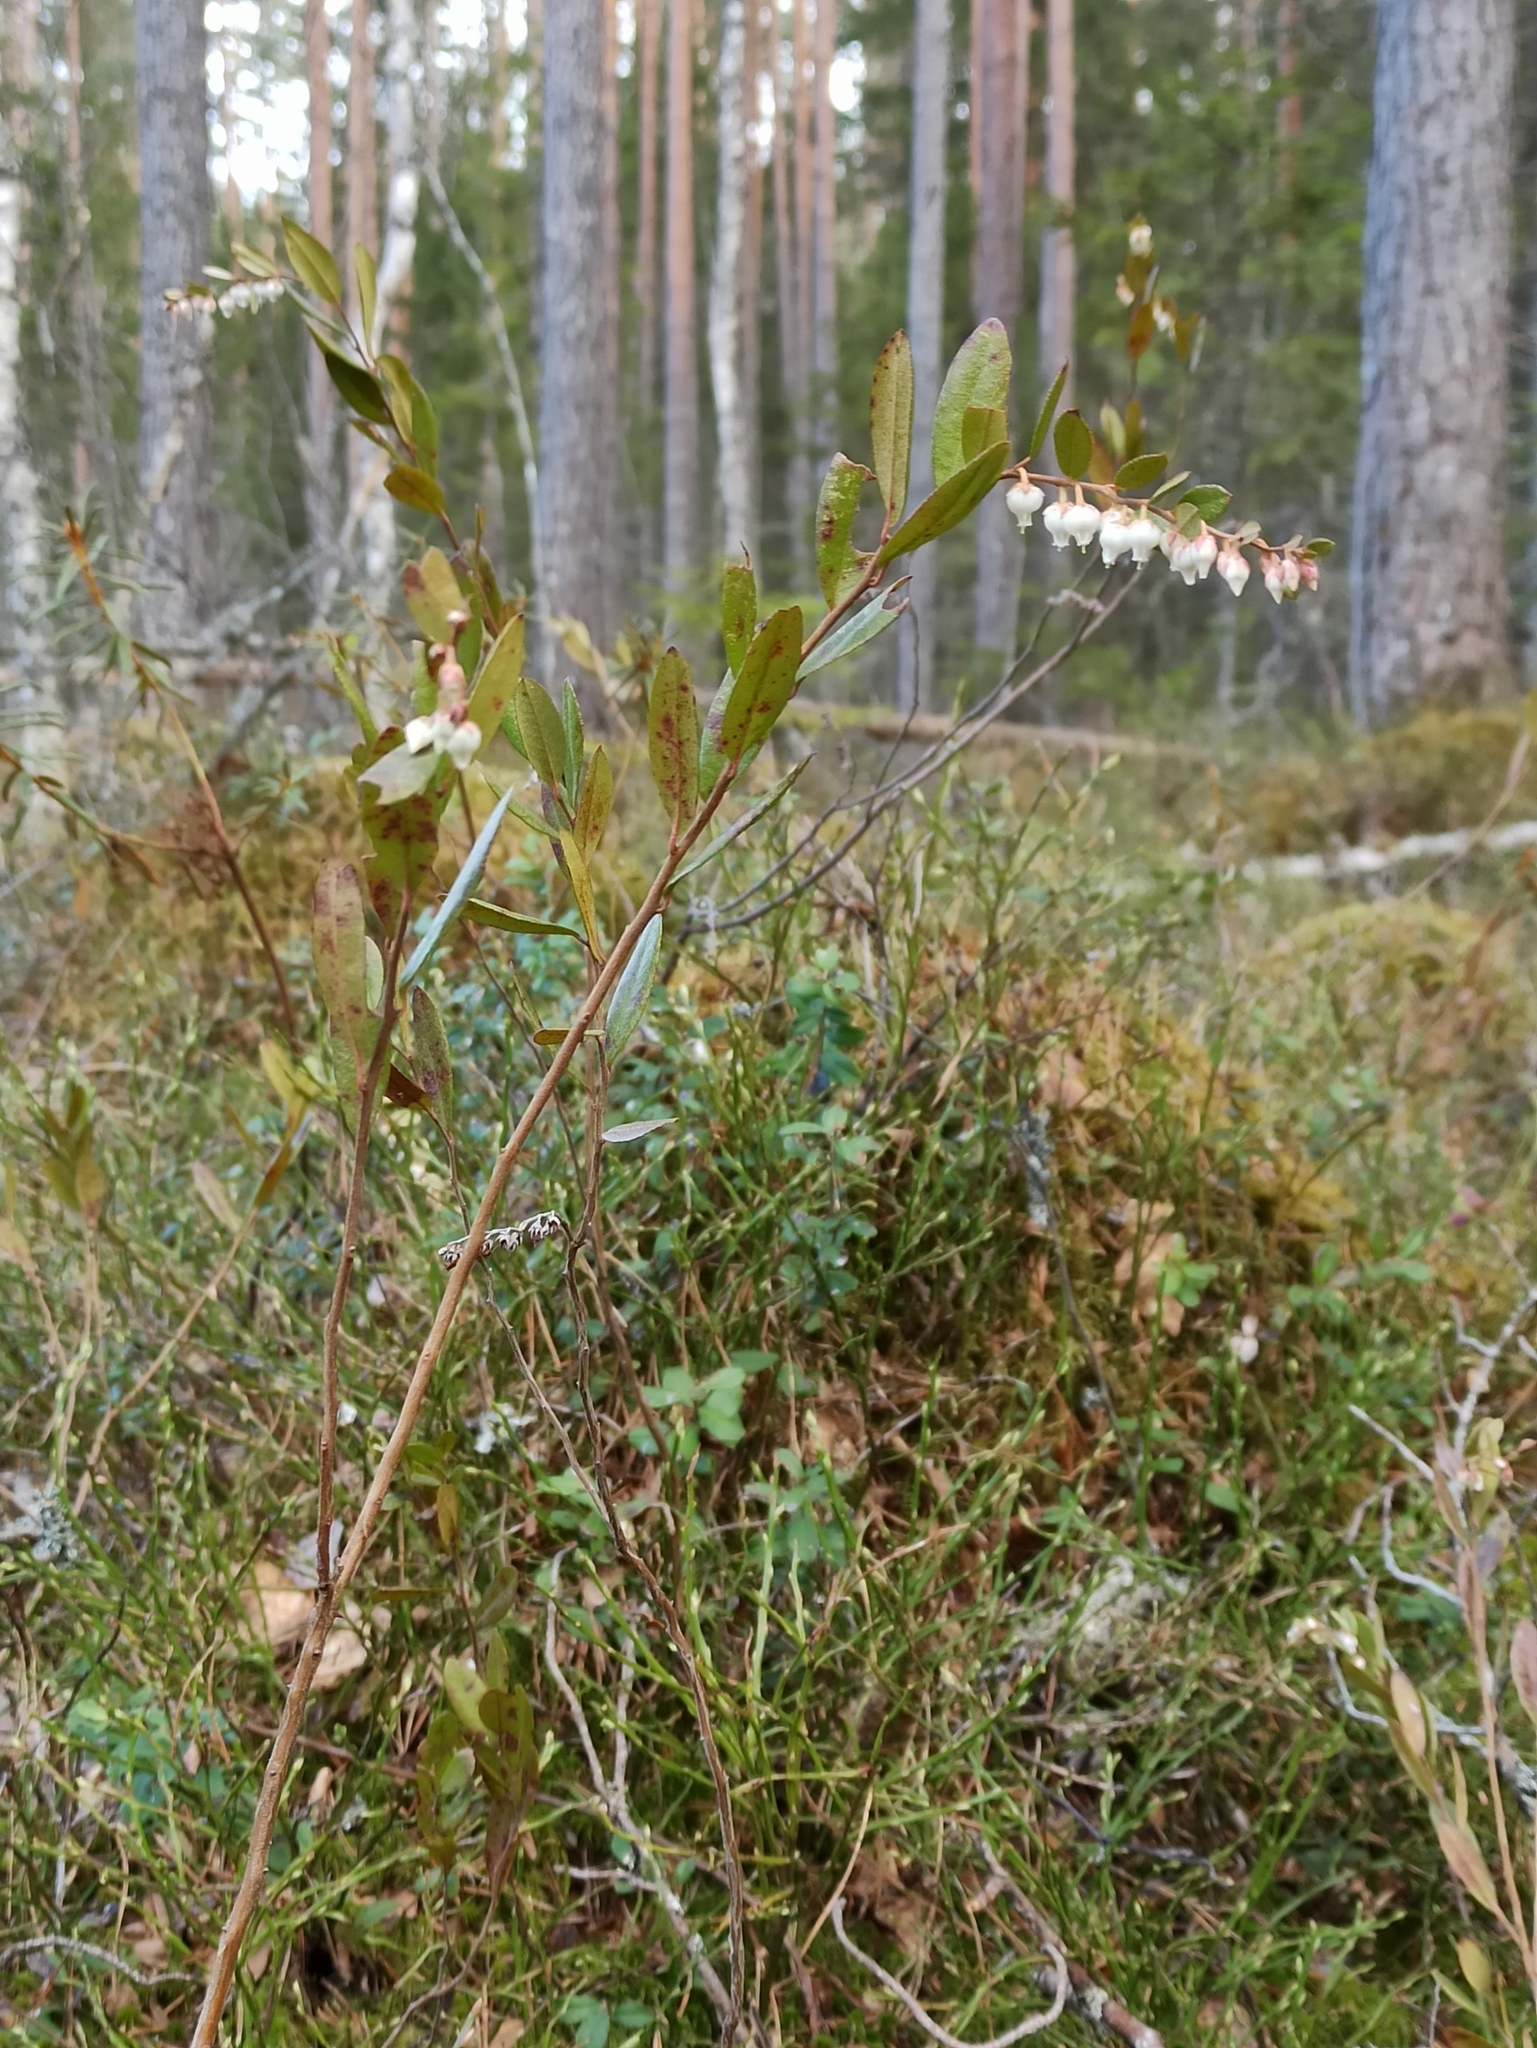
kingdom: Plantae
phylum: Tracheophyta
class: Magnoliopsida
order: Ericales
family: Ericaceae
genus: Chamaedaphne
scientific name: Chamaedaphne calyculata
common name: Leatherleaf
